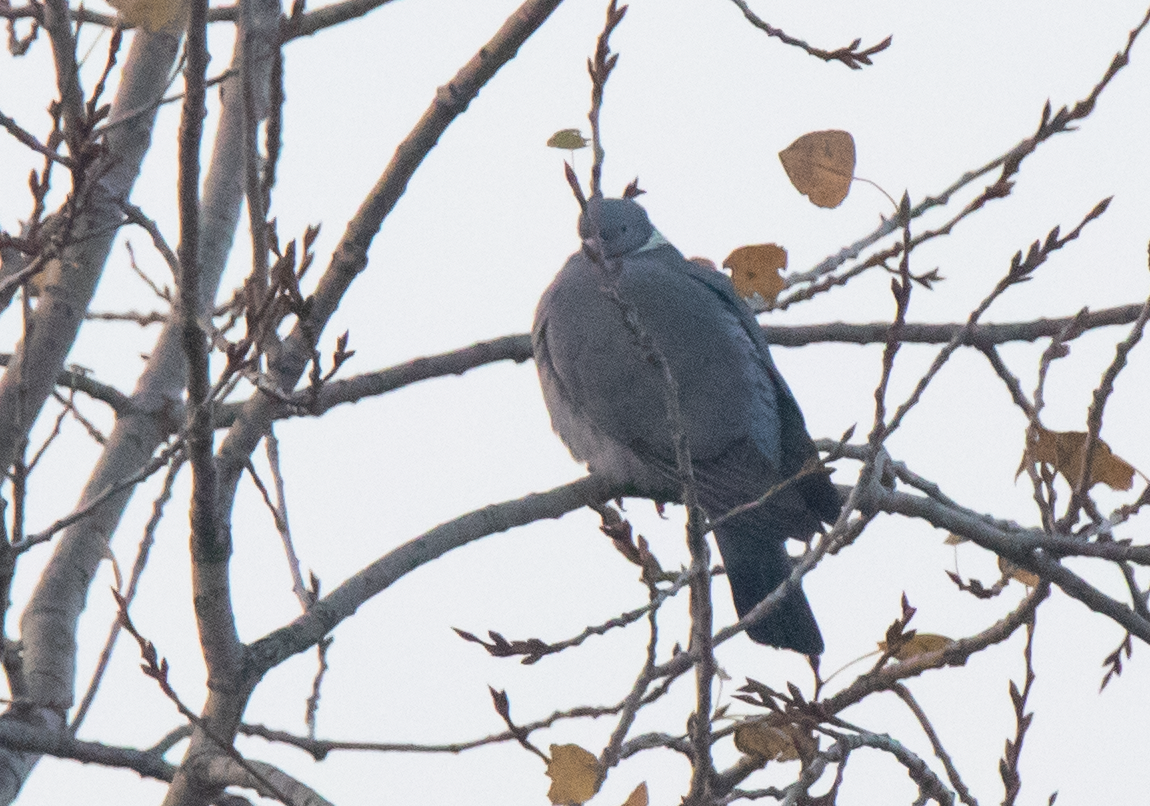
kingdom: Animalia
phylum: Chordata
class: Aves
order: Columbiformes
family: Columbidae
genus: Columba
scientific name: Columba palumbus
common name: Common wood pigeon
